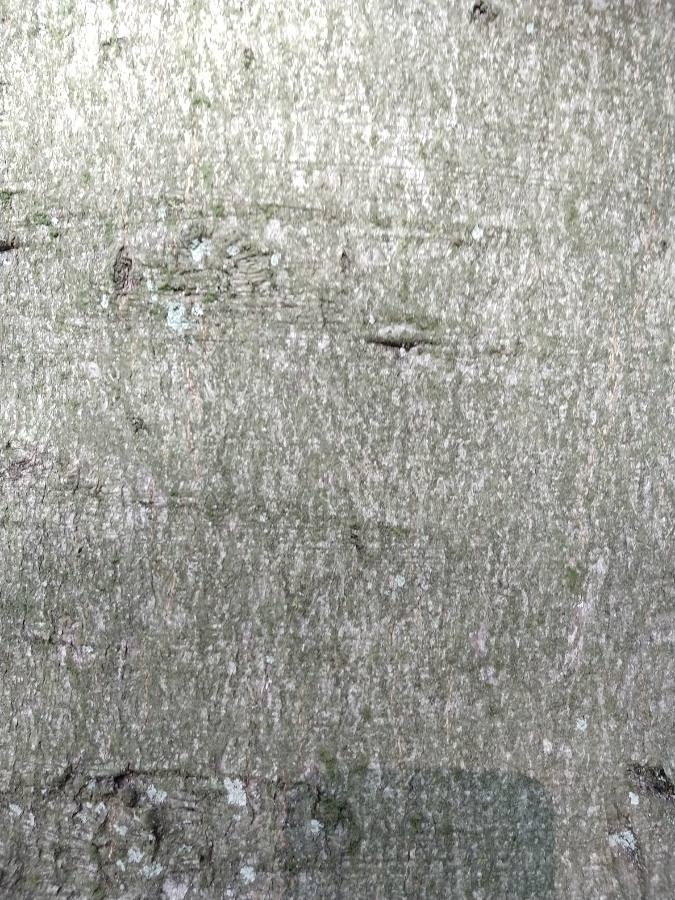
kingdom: Plantae
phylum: Tracheophyta
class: Magnoliopsida
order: Fagales
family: Fagaceae
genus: Fagus
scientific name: Fagus sylvatica
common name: Beech
